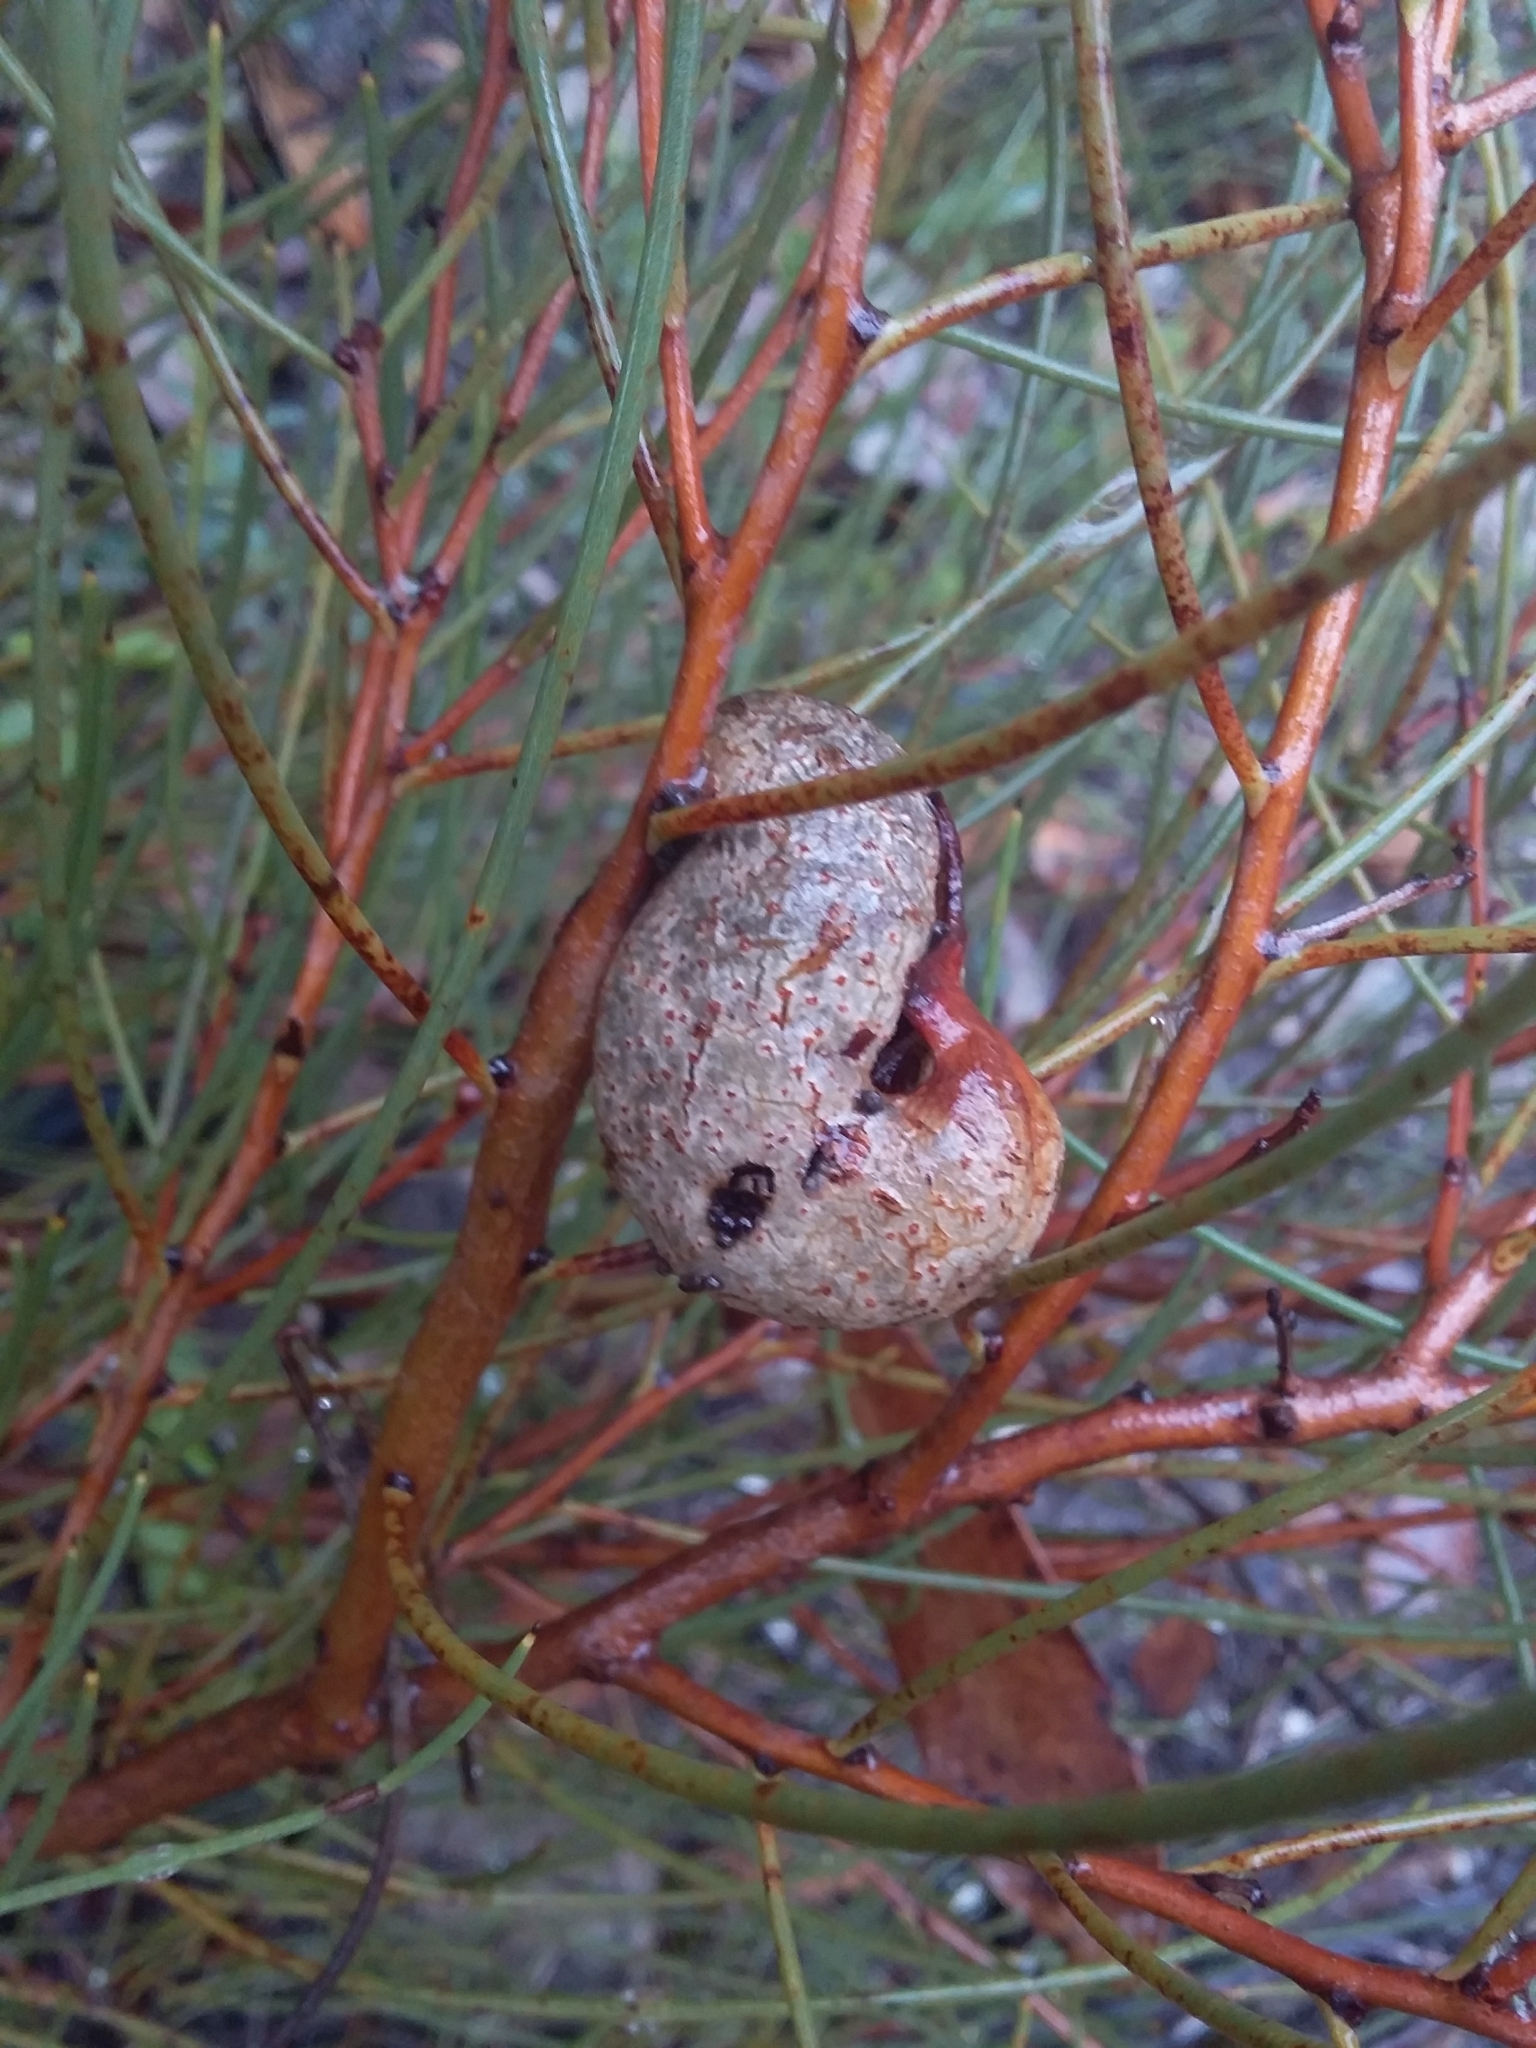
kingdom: Plantae
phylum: Tracheophyta
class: Magnoliopsida
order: Proteales
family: Proteaceae
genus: Hakea
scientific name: Hakea rostrata
